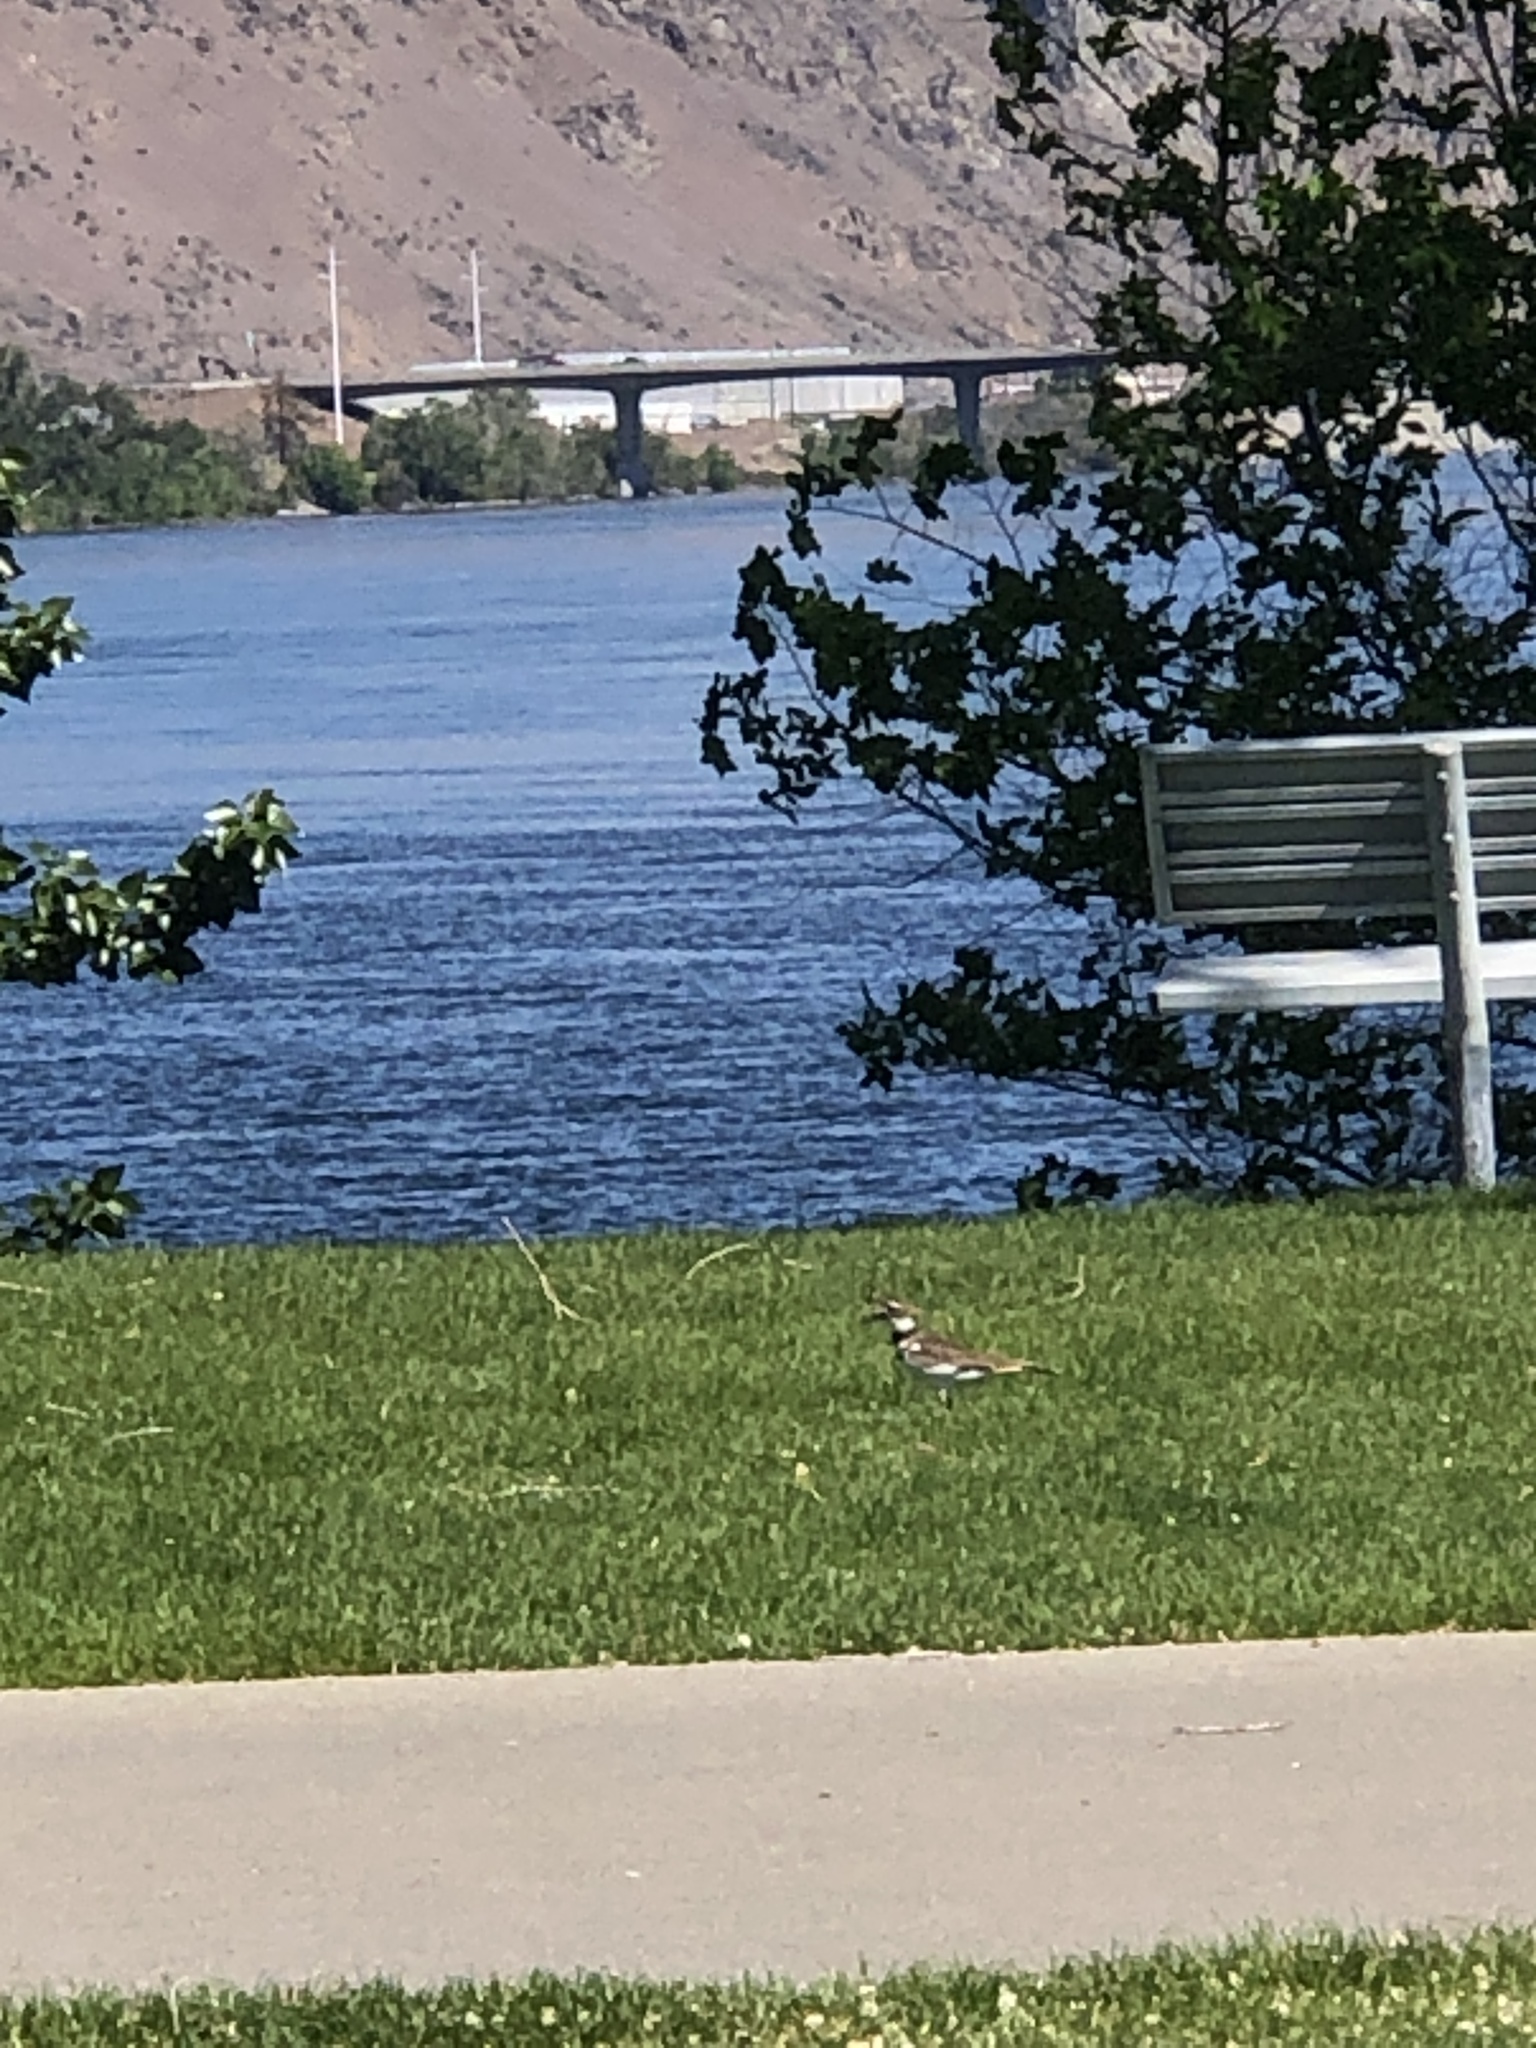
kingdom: Animalia
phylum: Chordata
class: Aves
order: Charadriiformes
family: Charadriidae
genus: Charadrius
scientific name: Charadrius vociferus
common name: Killdeer
